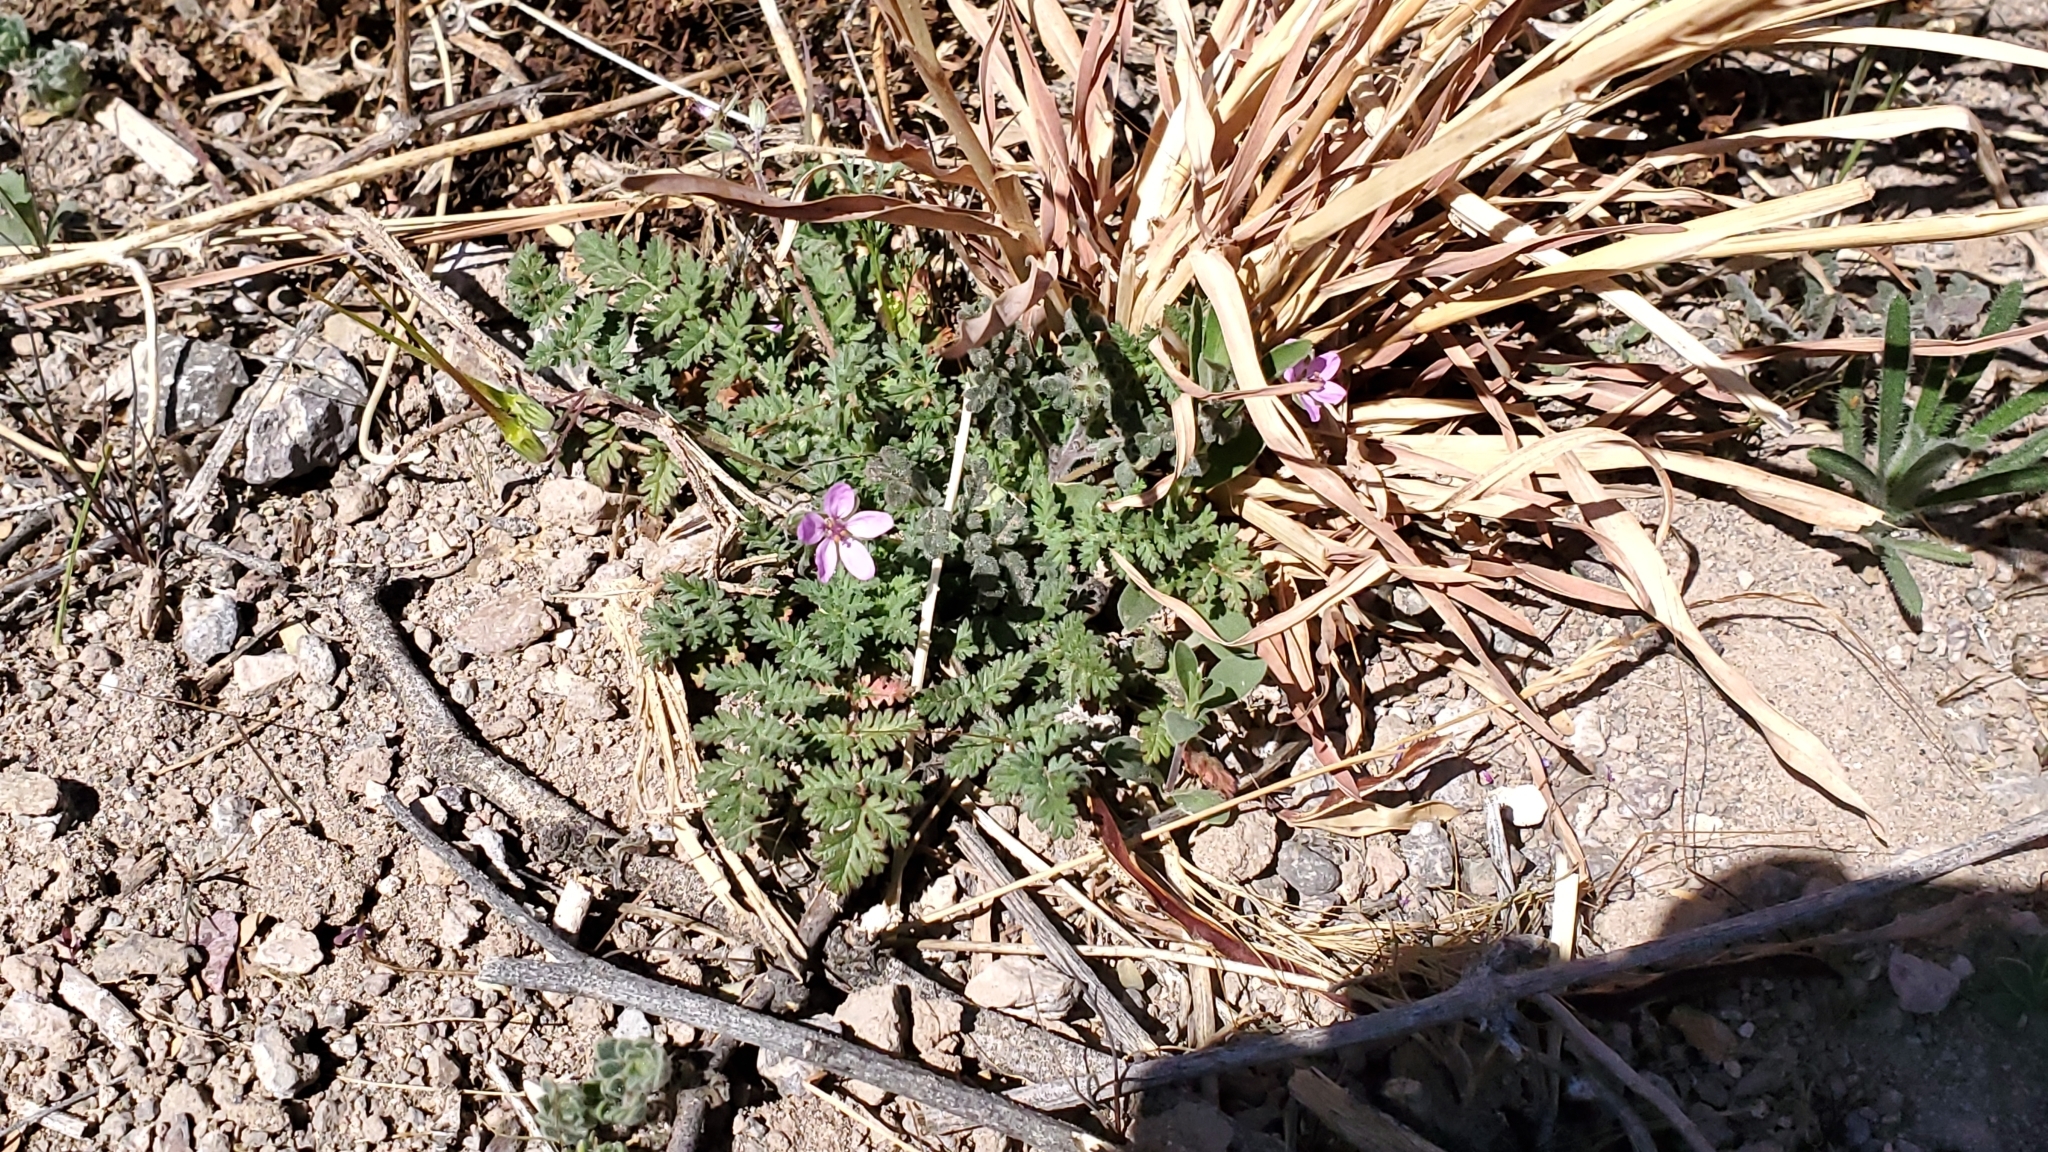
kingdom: Plantae
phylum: Tracheophyta
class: Magnoliopsida
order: Geraniales
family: Geraniaceae
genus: Erodium
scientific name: Erodium cicutarium
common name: Common stork's-bill
